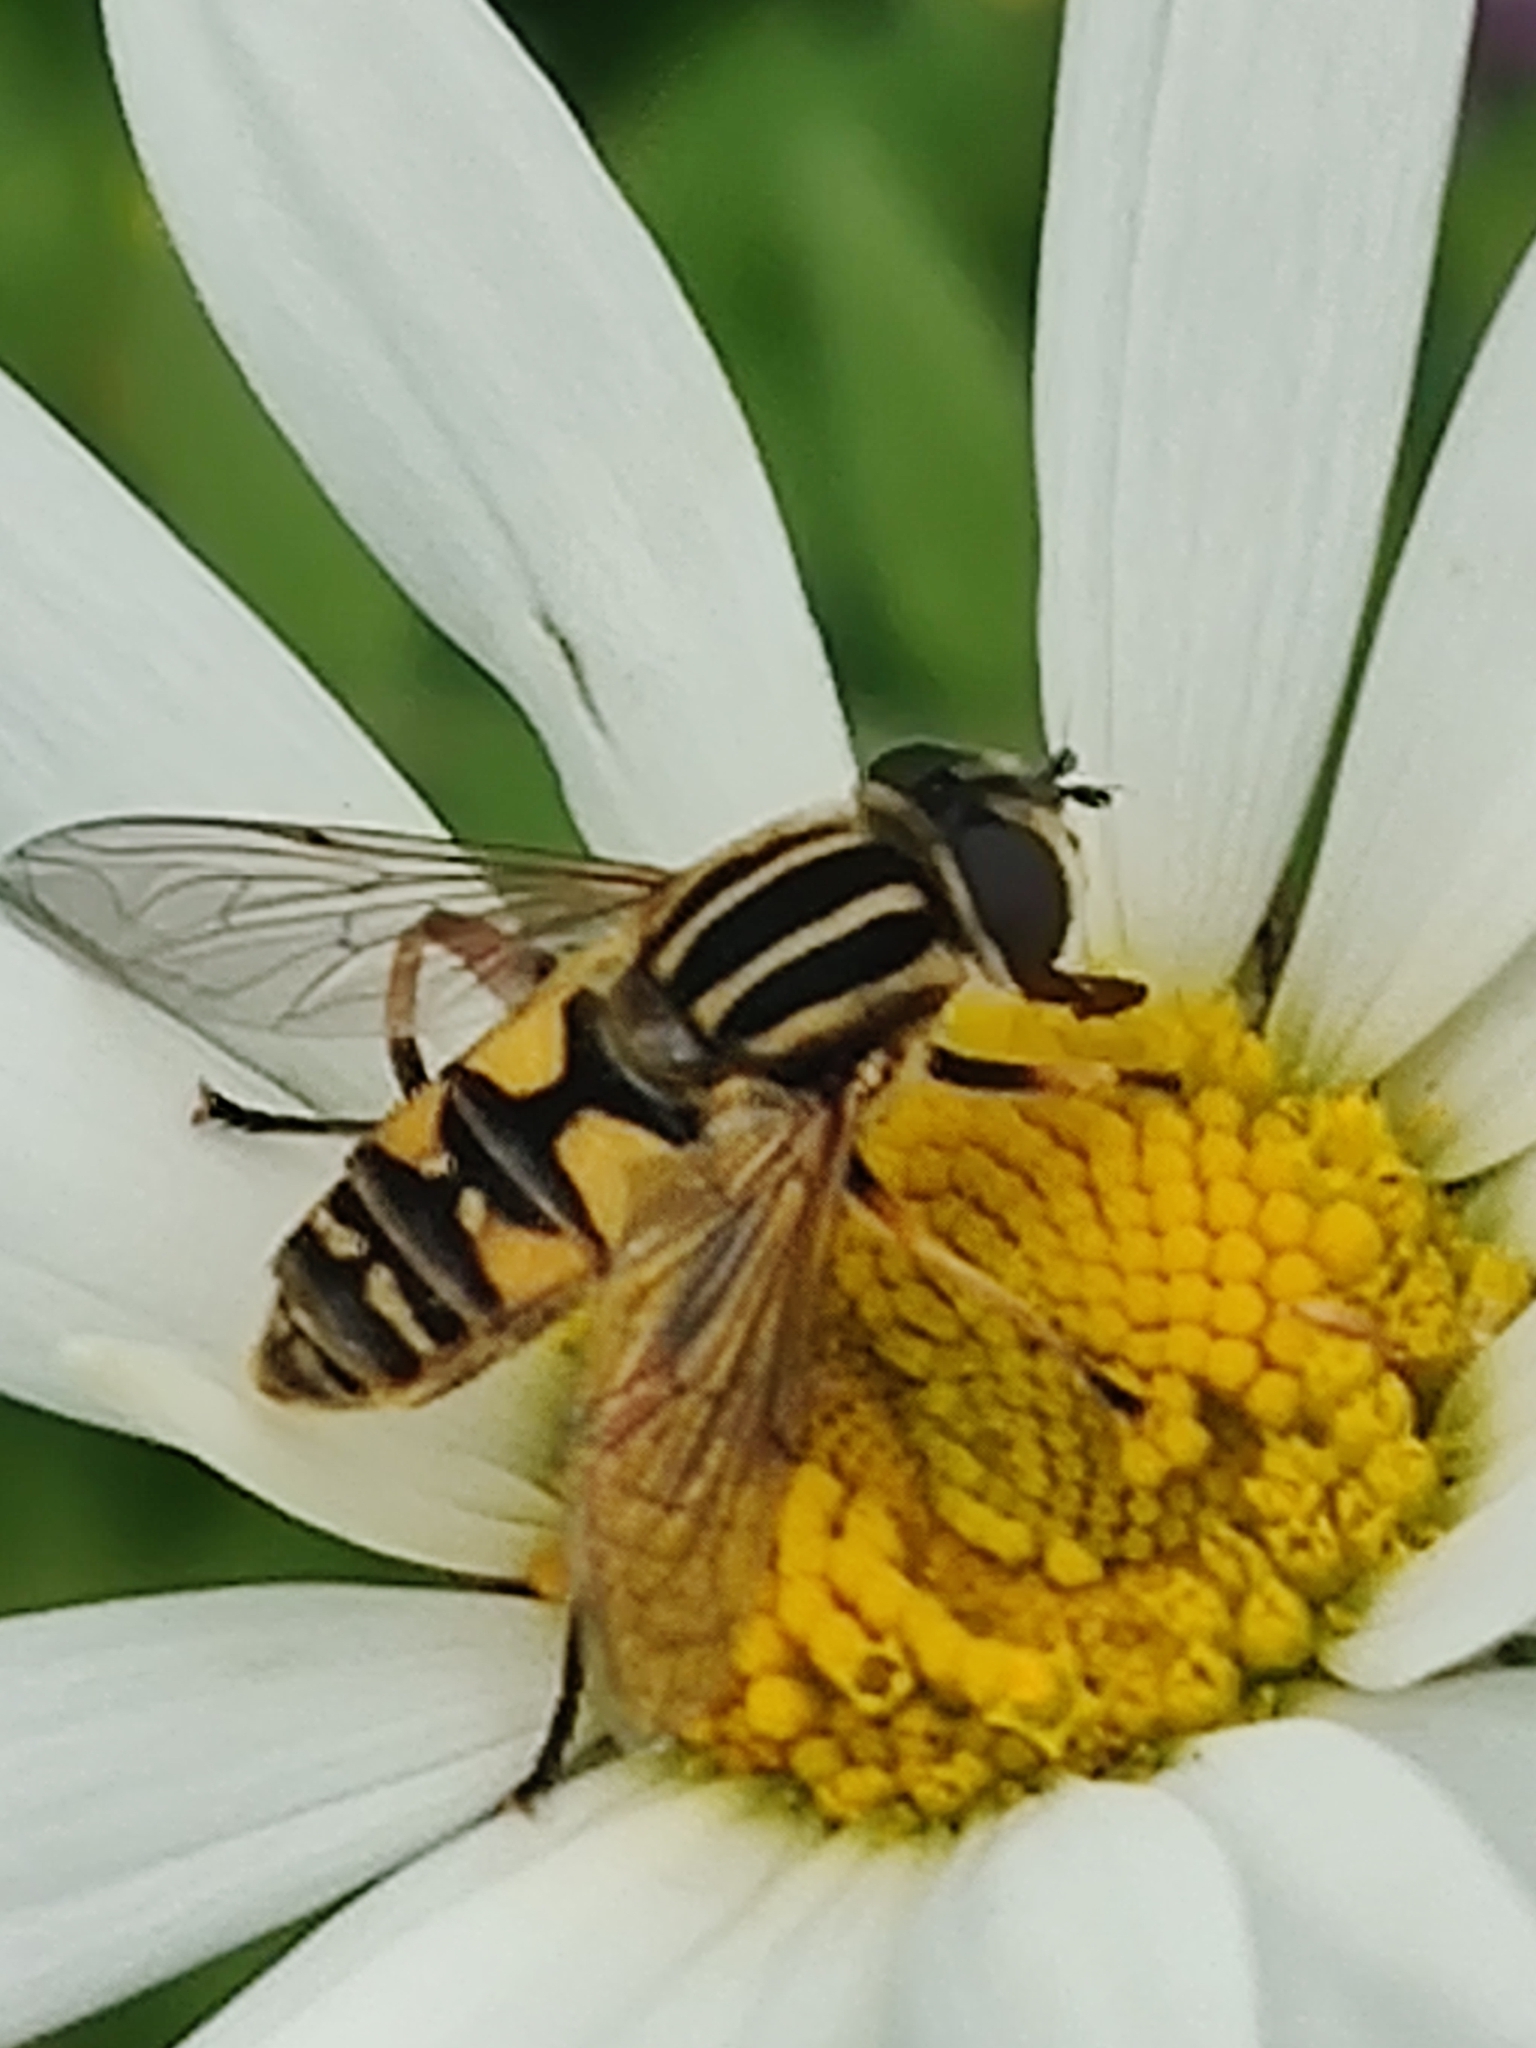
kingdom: Animalia
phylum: Arthropoda
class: Insecta
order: Diptera
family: Syrphidae
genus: Helophilus
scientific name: Helophilus pendulus
